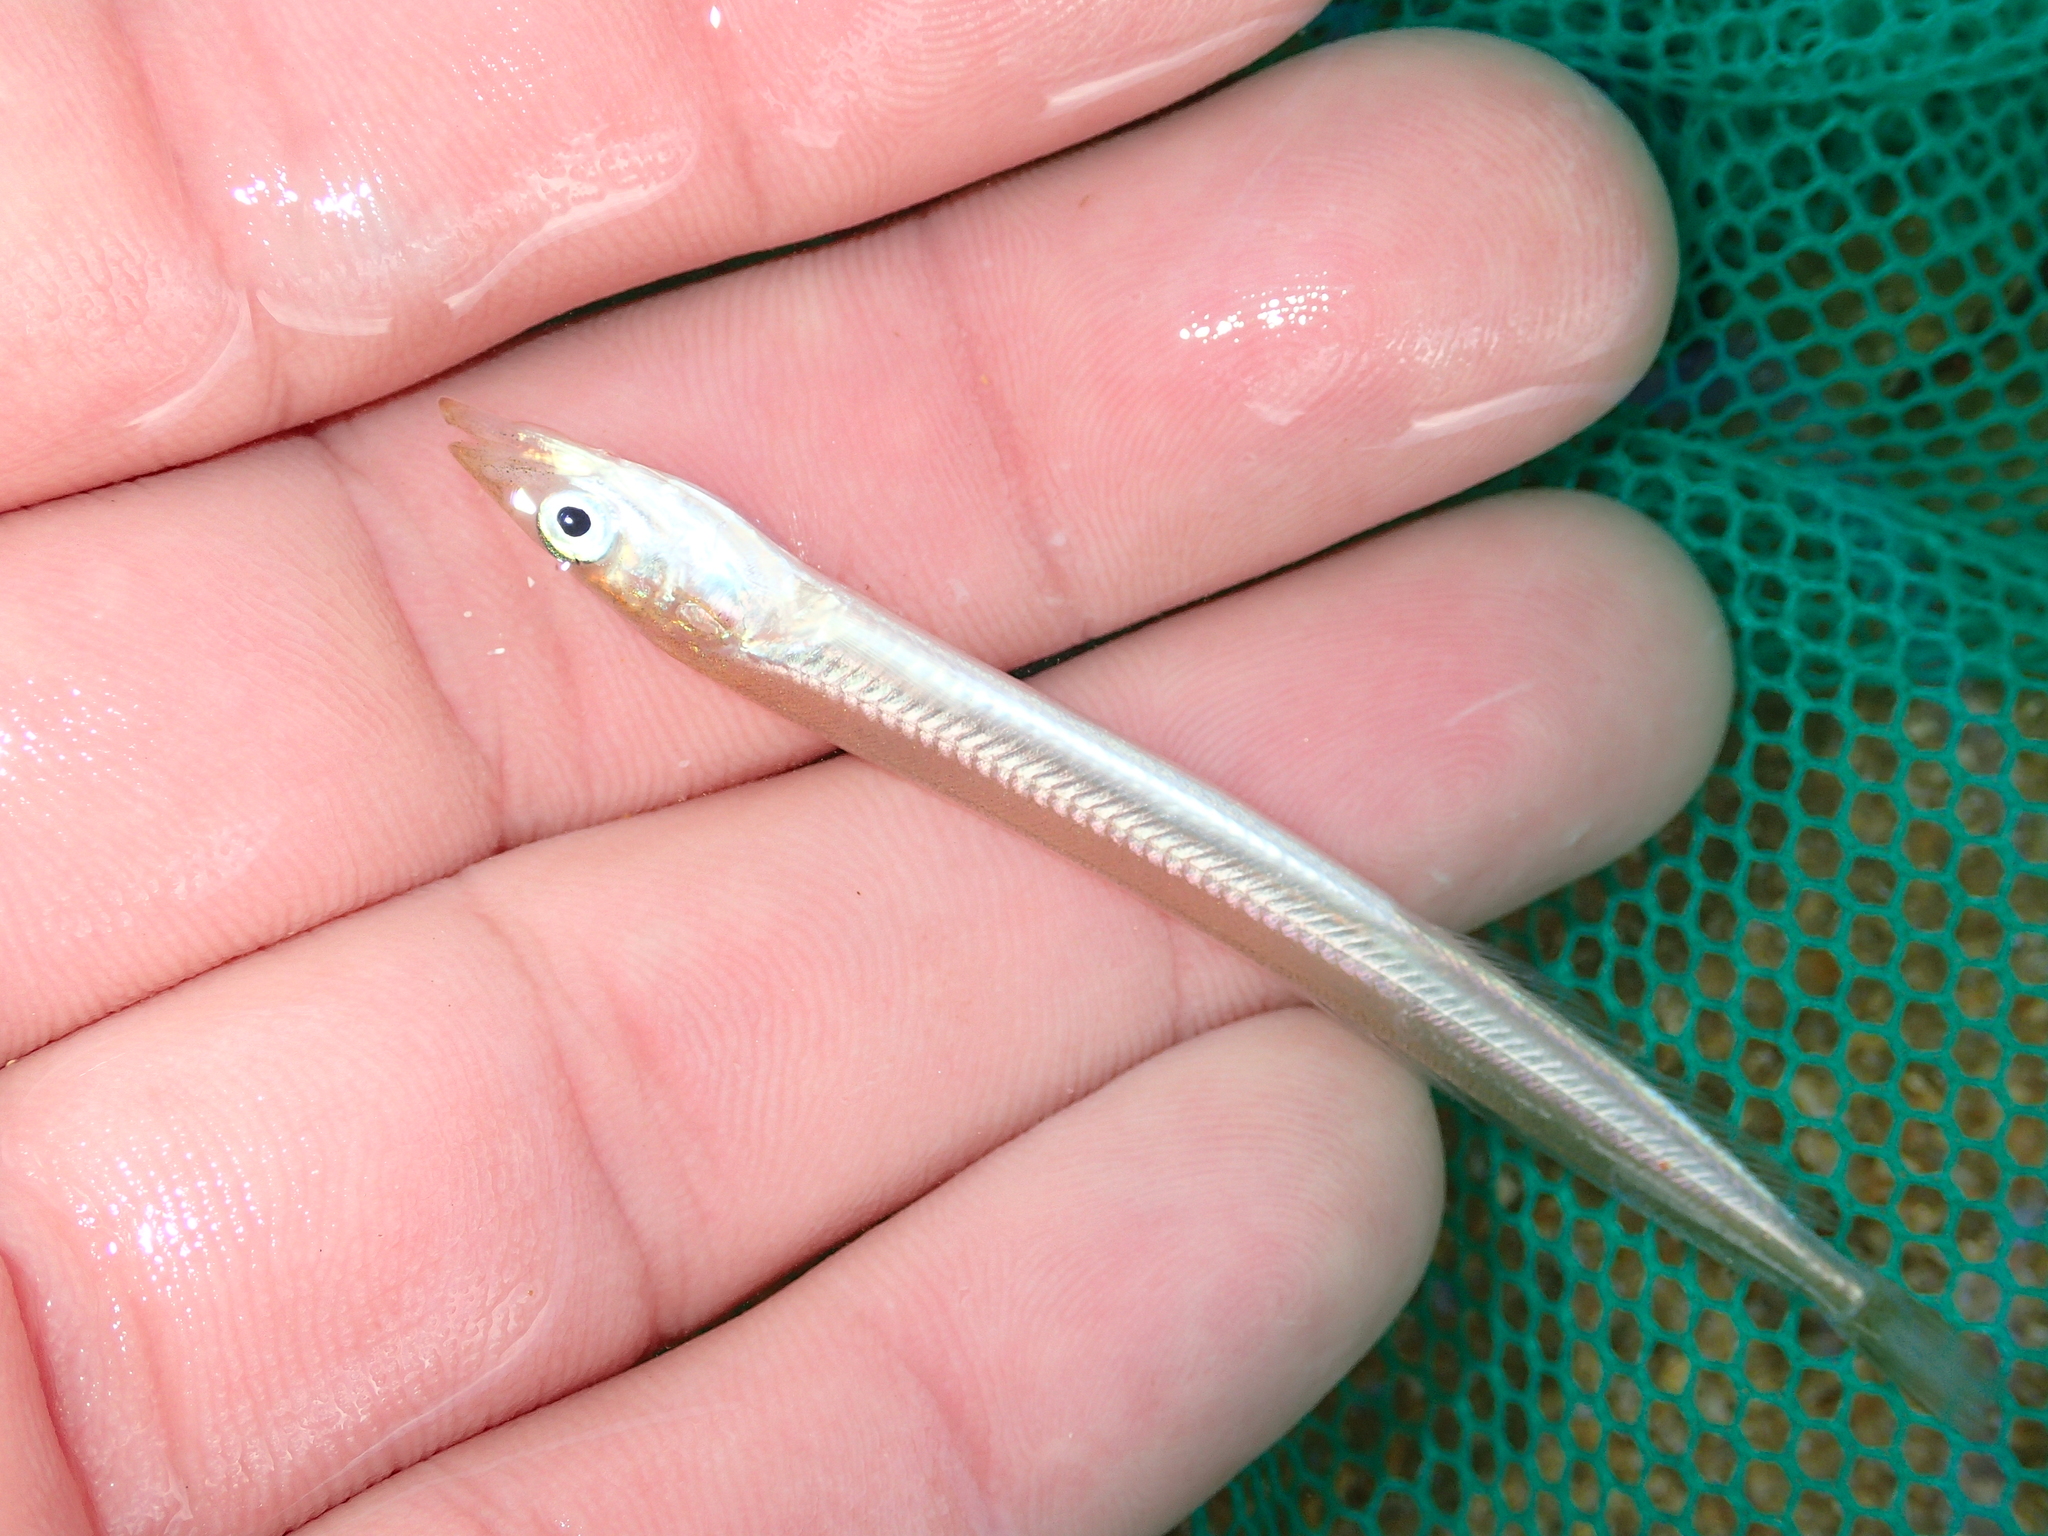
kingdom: Animalia
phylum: Chordata
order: Perciformes
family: Ammodytidae
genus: Ammodytes
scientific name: Ammodytes tobianus
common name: Small sandeel
